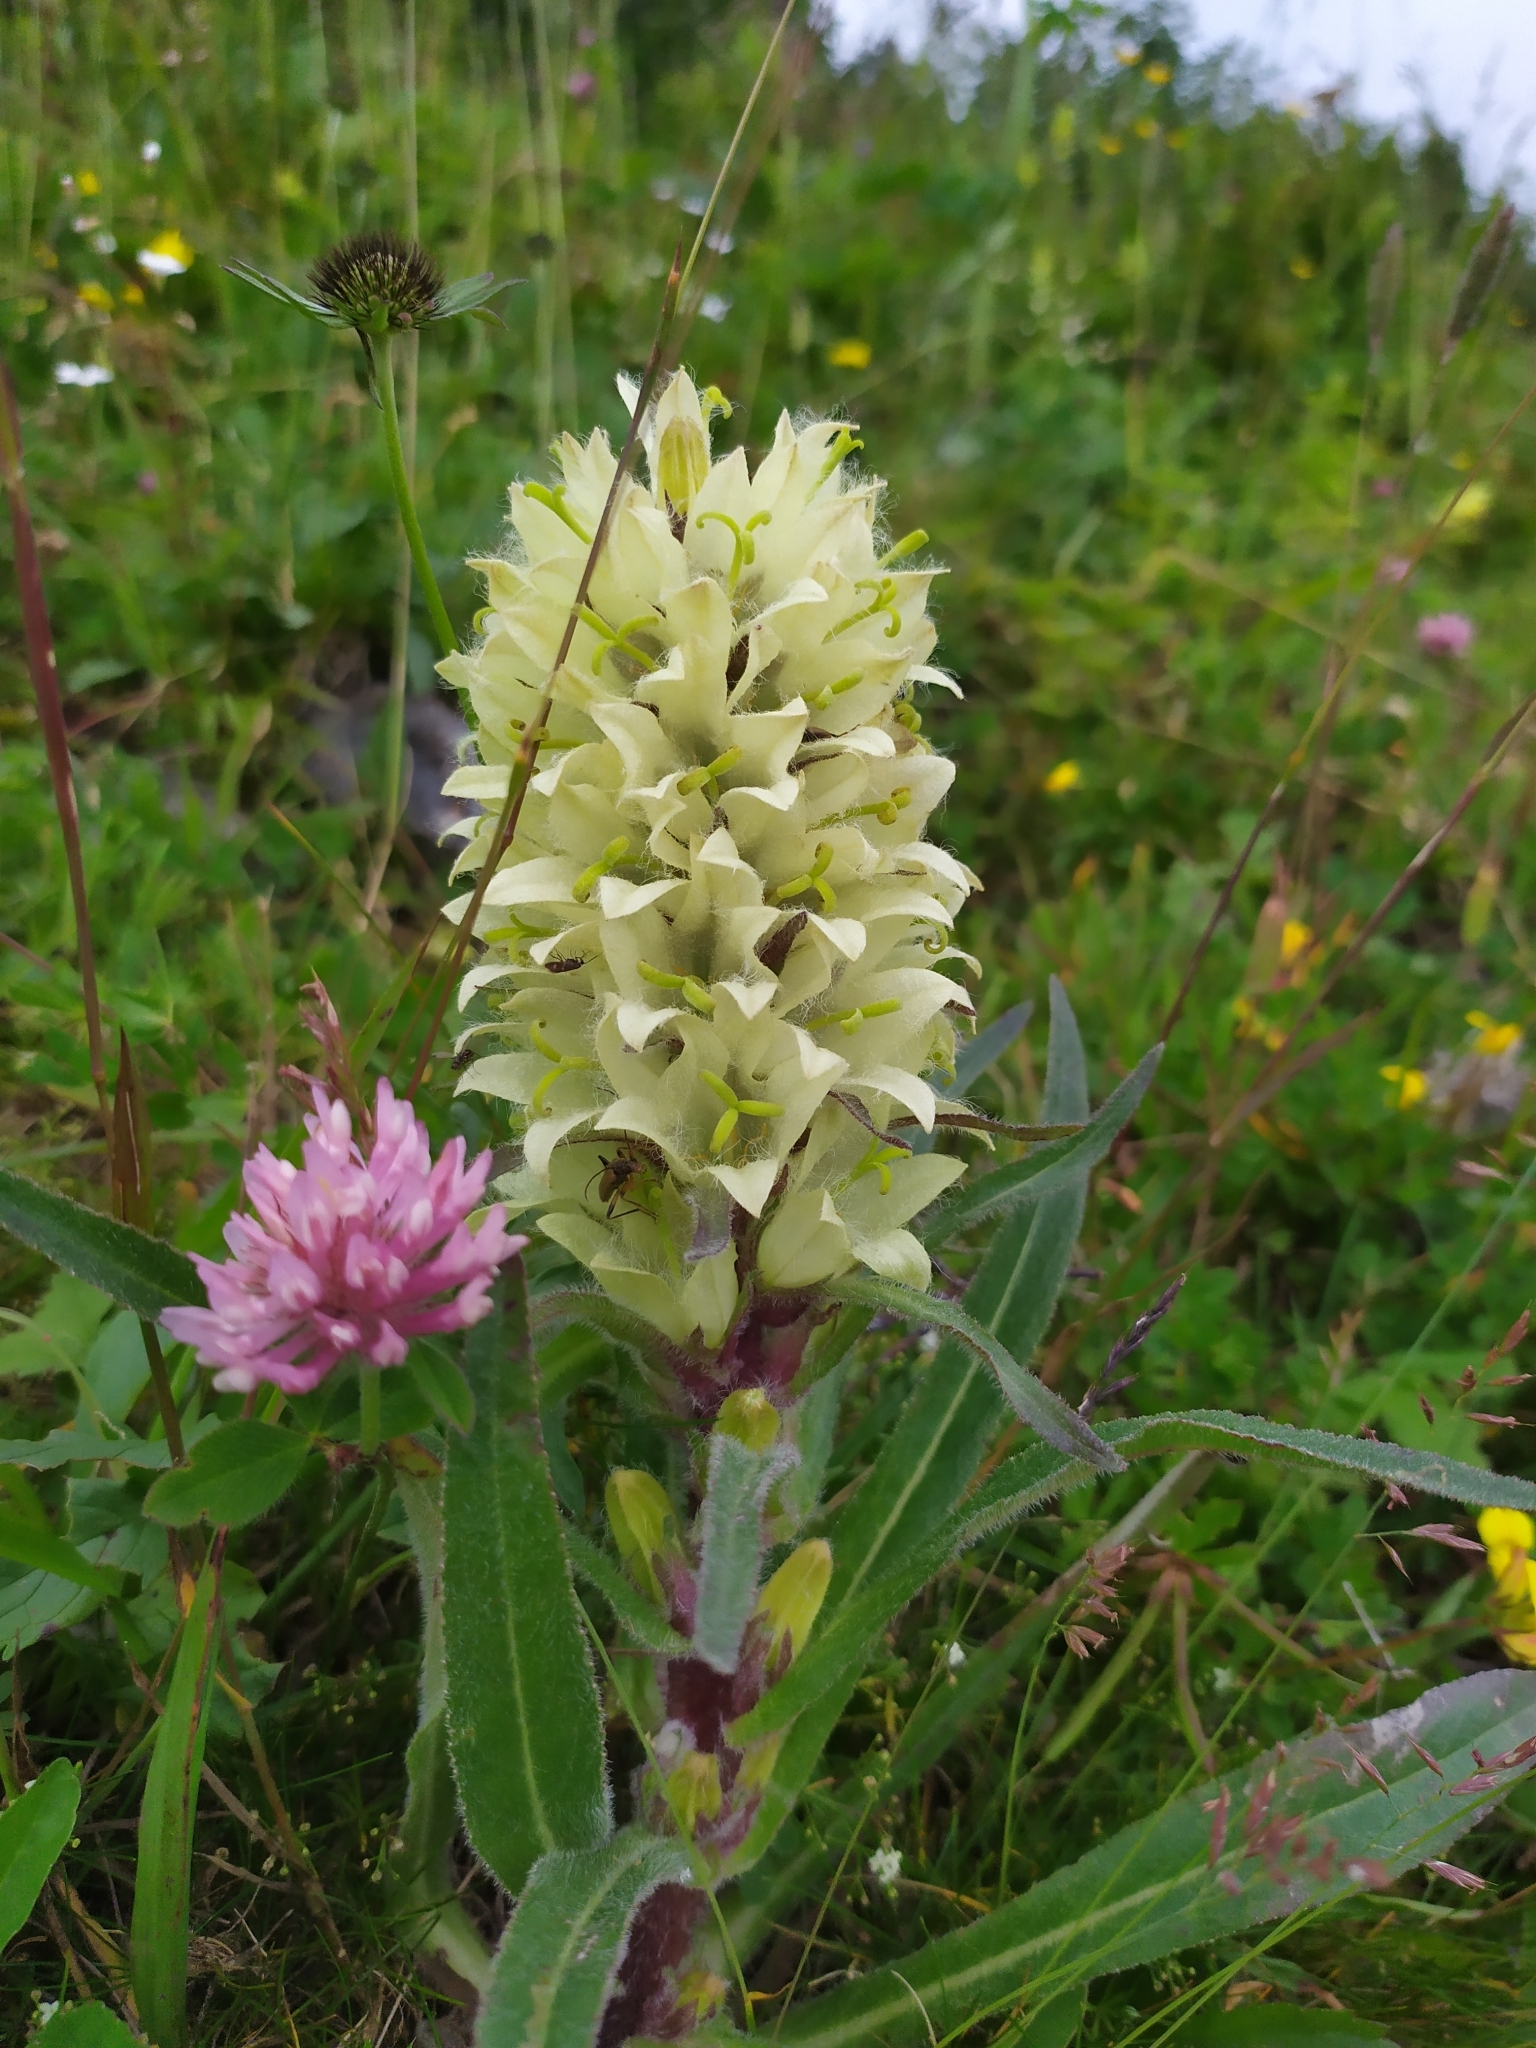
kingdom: Plantae
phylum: Tracheophyta
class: Magnoliopsida
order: Asterales
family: Campanulaceae
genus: Campanula
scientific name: Campanula thyrsoides
